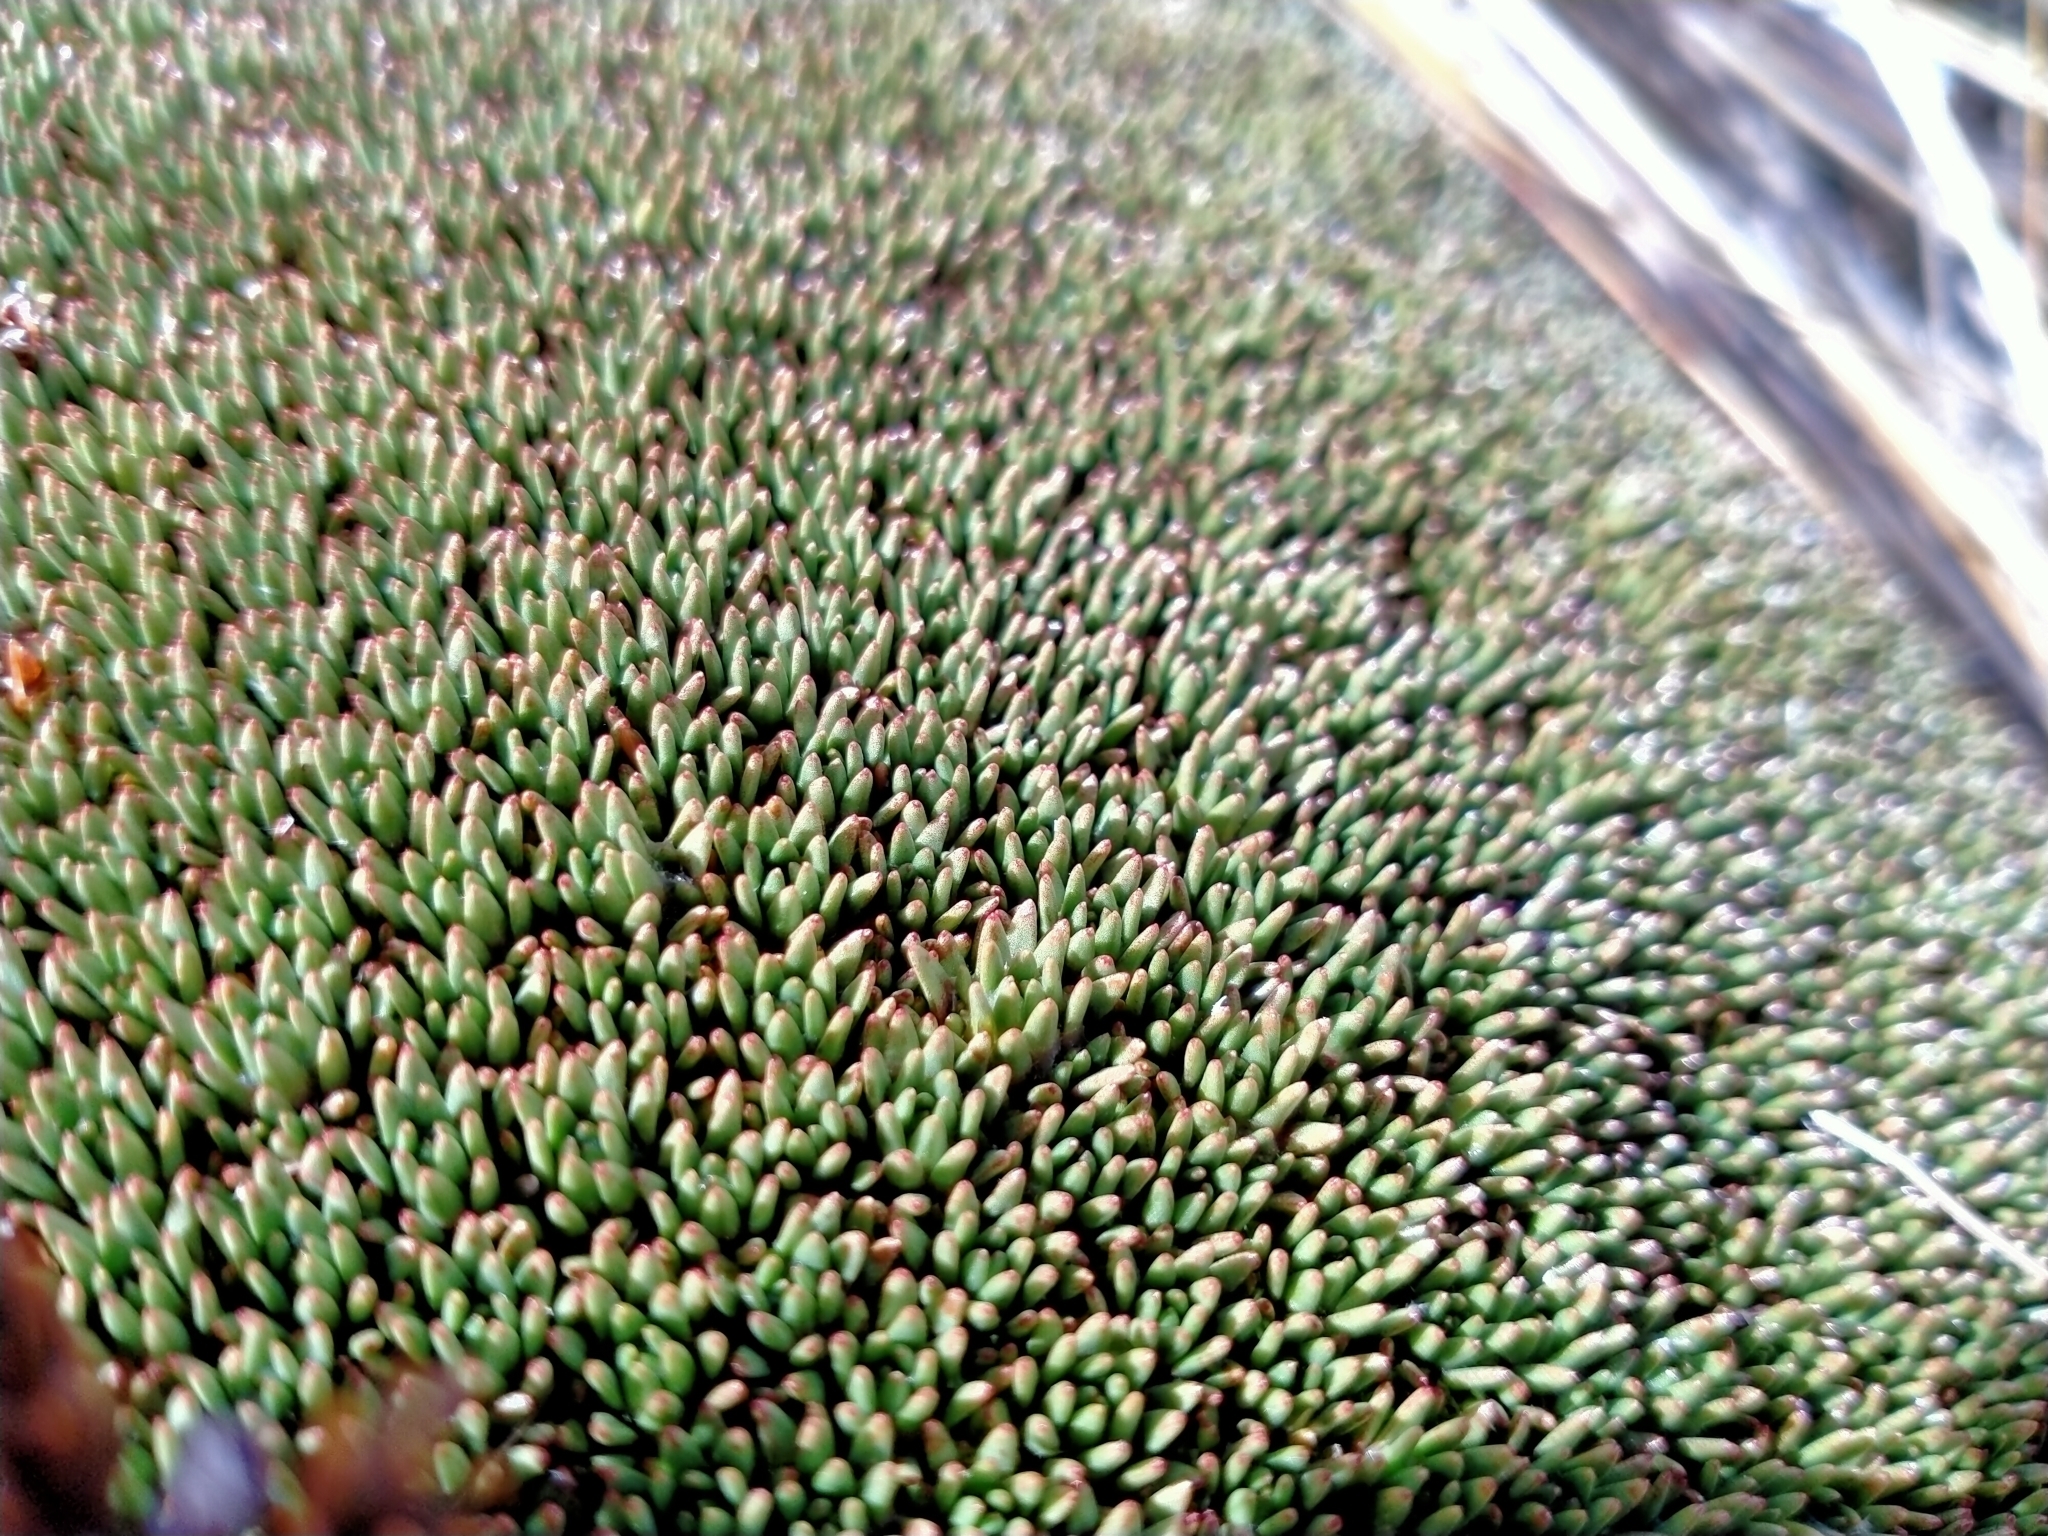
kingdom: Plantae
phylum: Tracheophyta
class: Magnoliopsida
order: Asterales
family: Stylidiaceae
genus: Donatia
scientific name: Donatia novae-zelandiae
